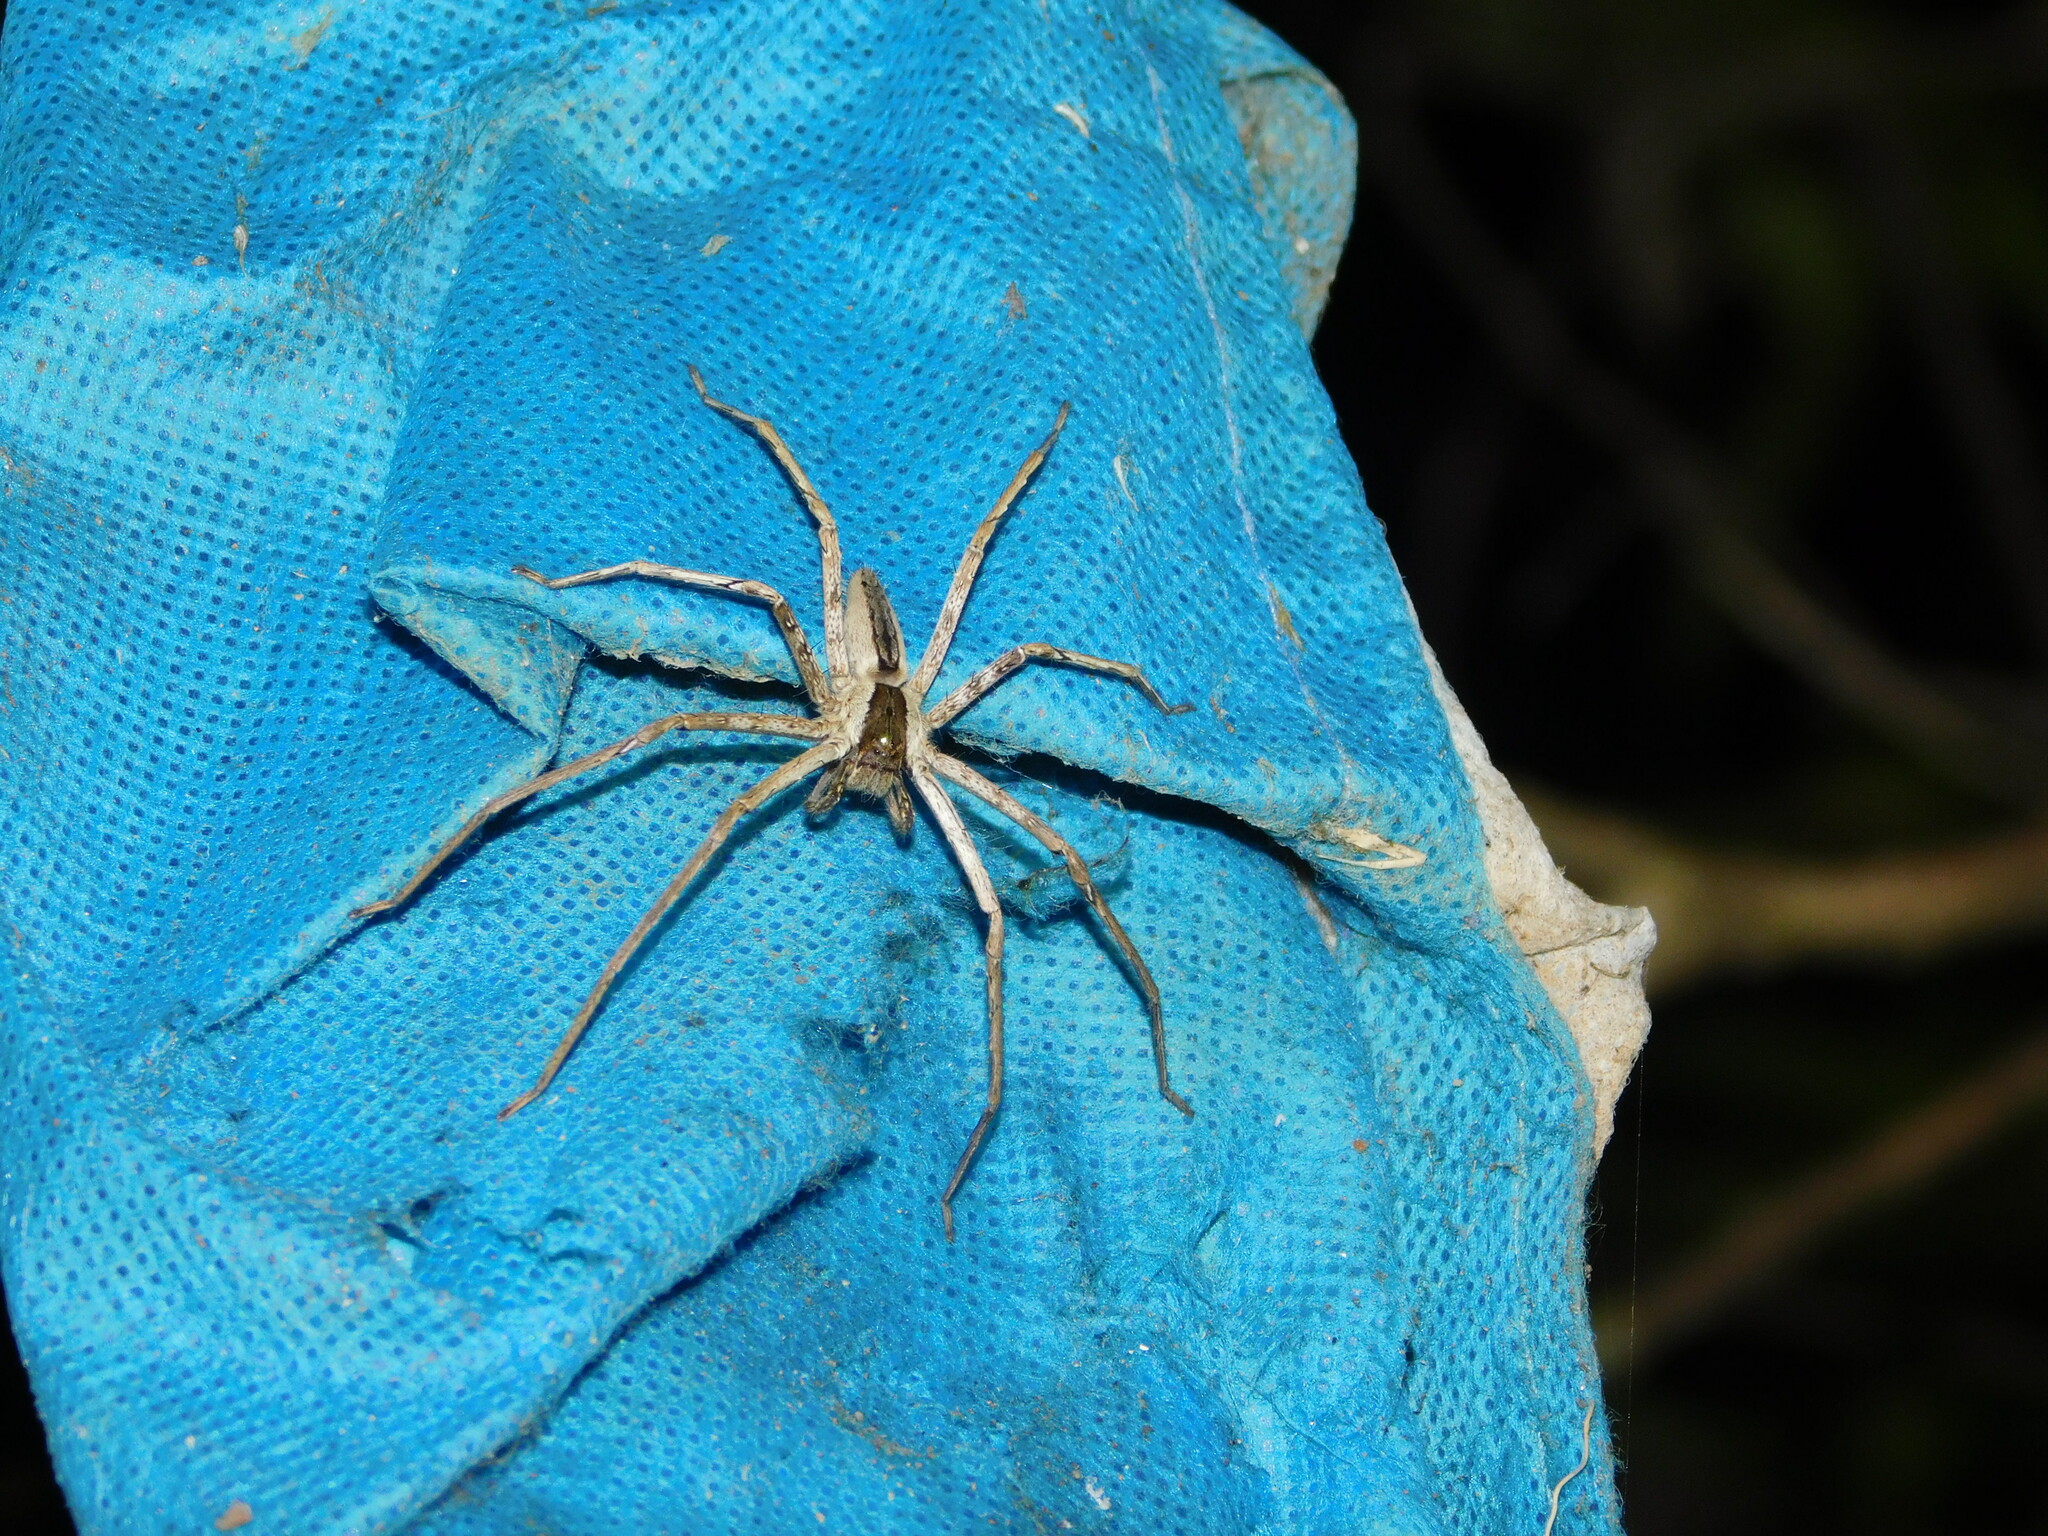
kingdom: Animalia
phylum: Arthropoda
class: Arachnida
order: Araneae
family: Sparassidae
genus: Heteropoda
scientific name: Heteropoda ocyalina
